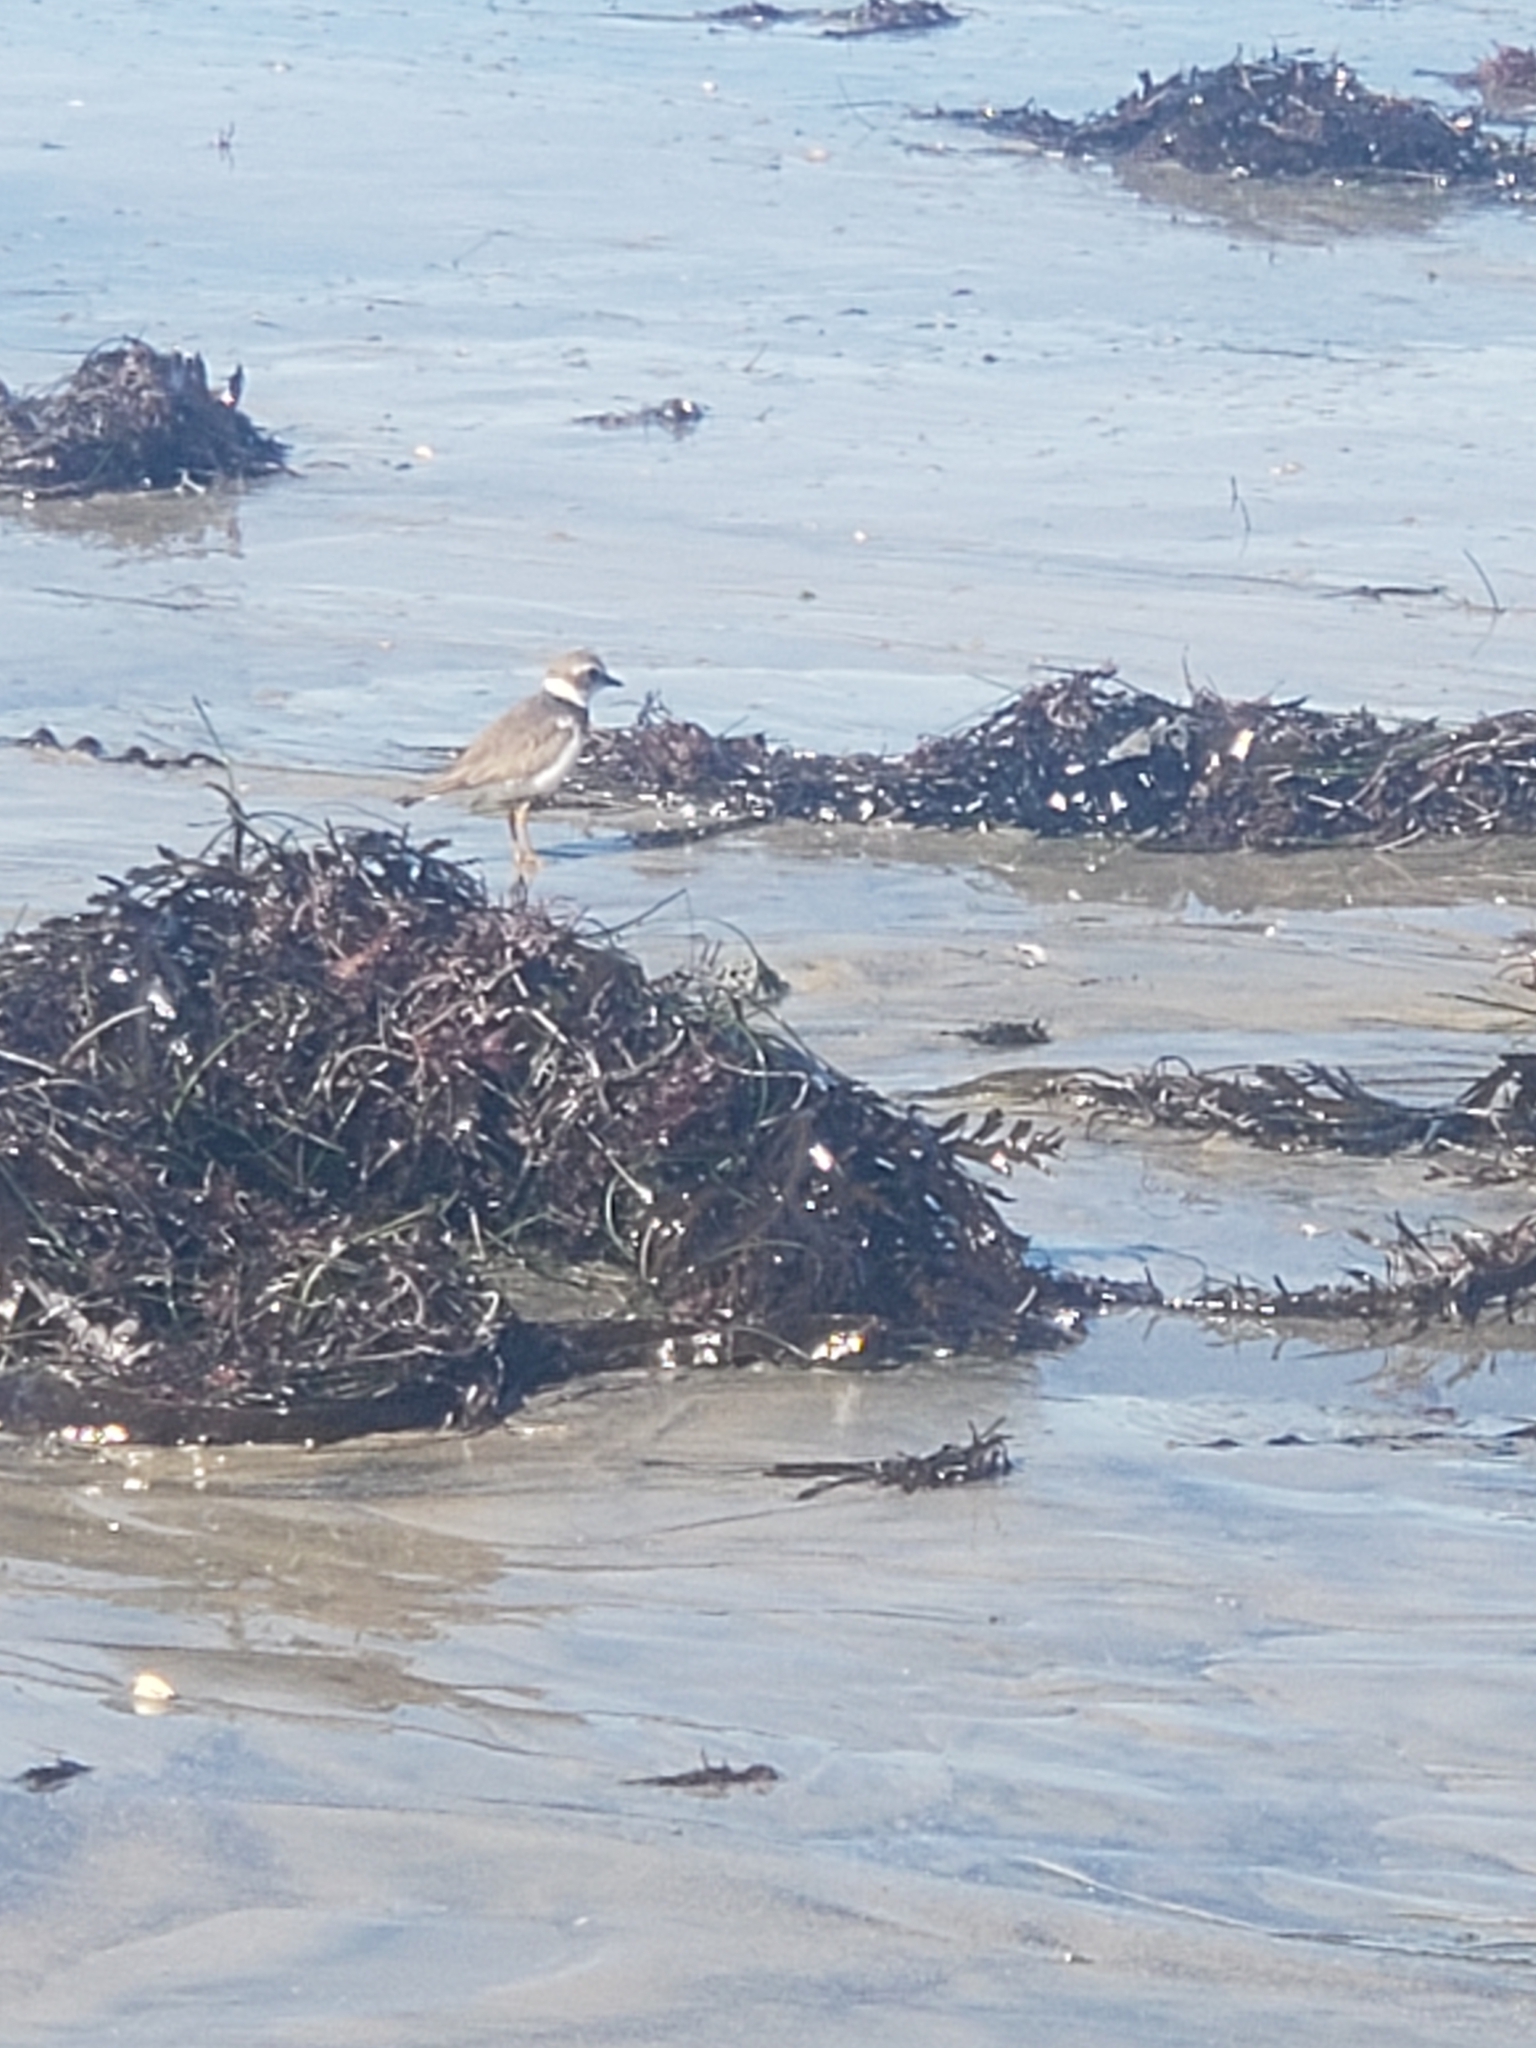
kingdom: Animalia
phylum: Chordata
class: Aves
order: Charadriiformes
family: Charadriidae
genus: Charadrius
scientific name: Charadrius semipalmatus
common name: Semipalmated plover
